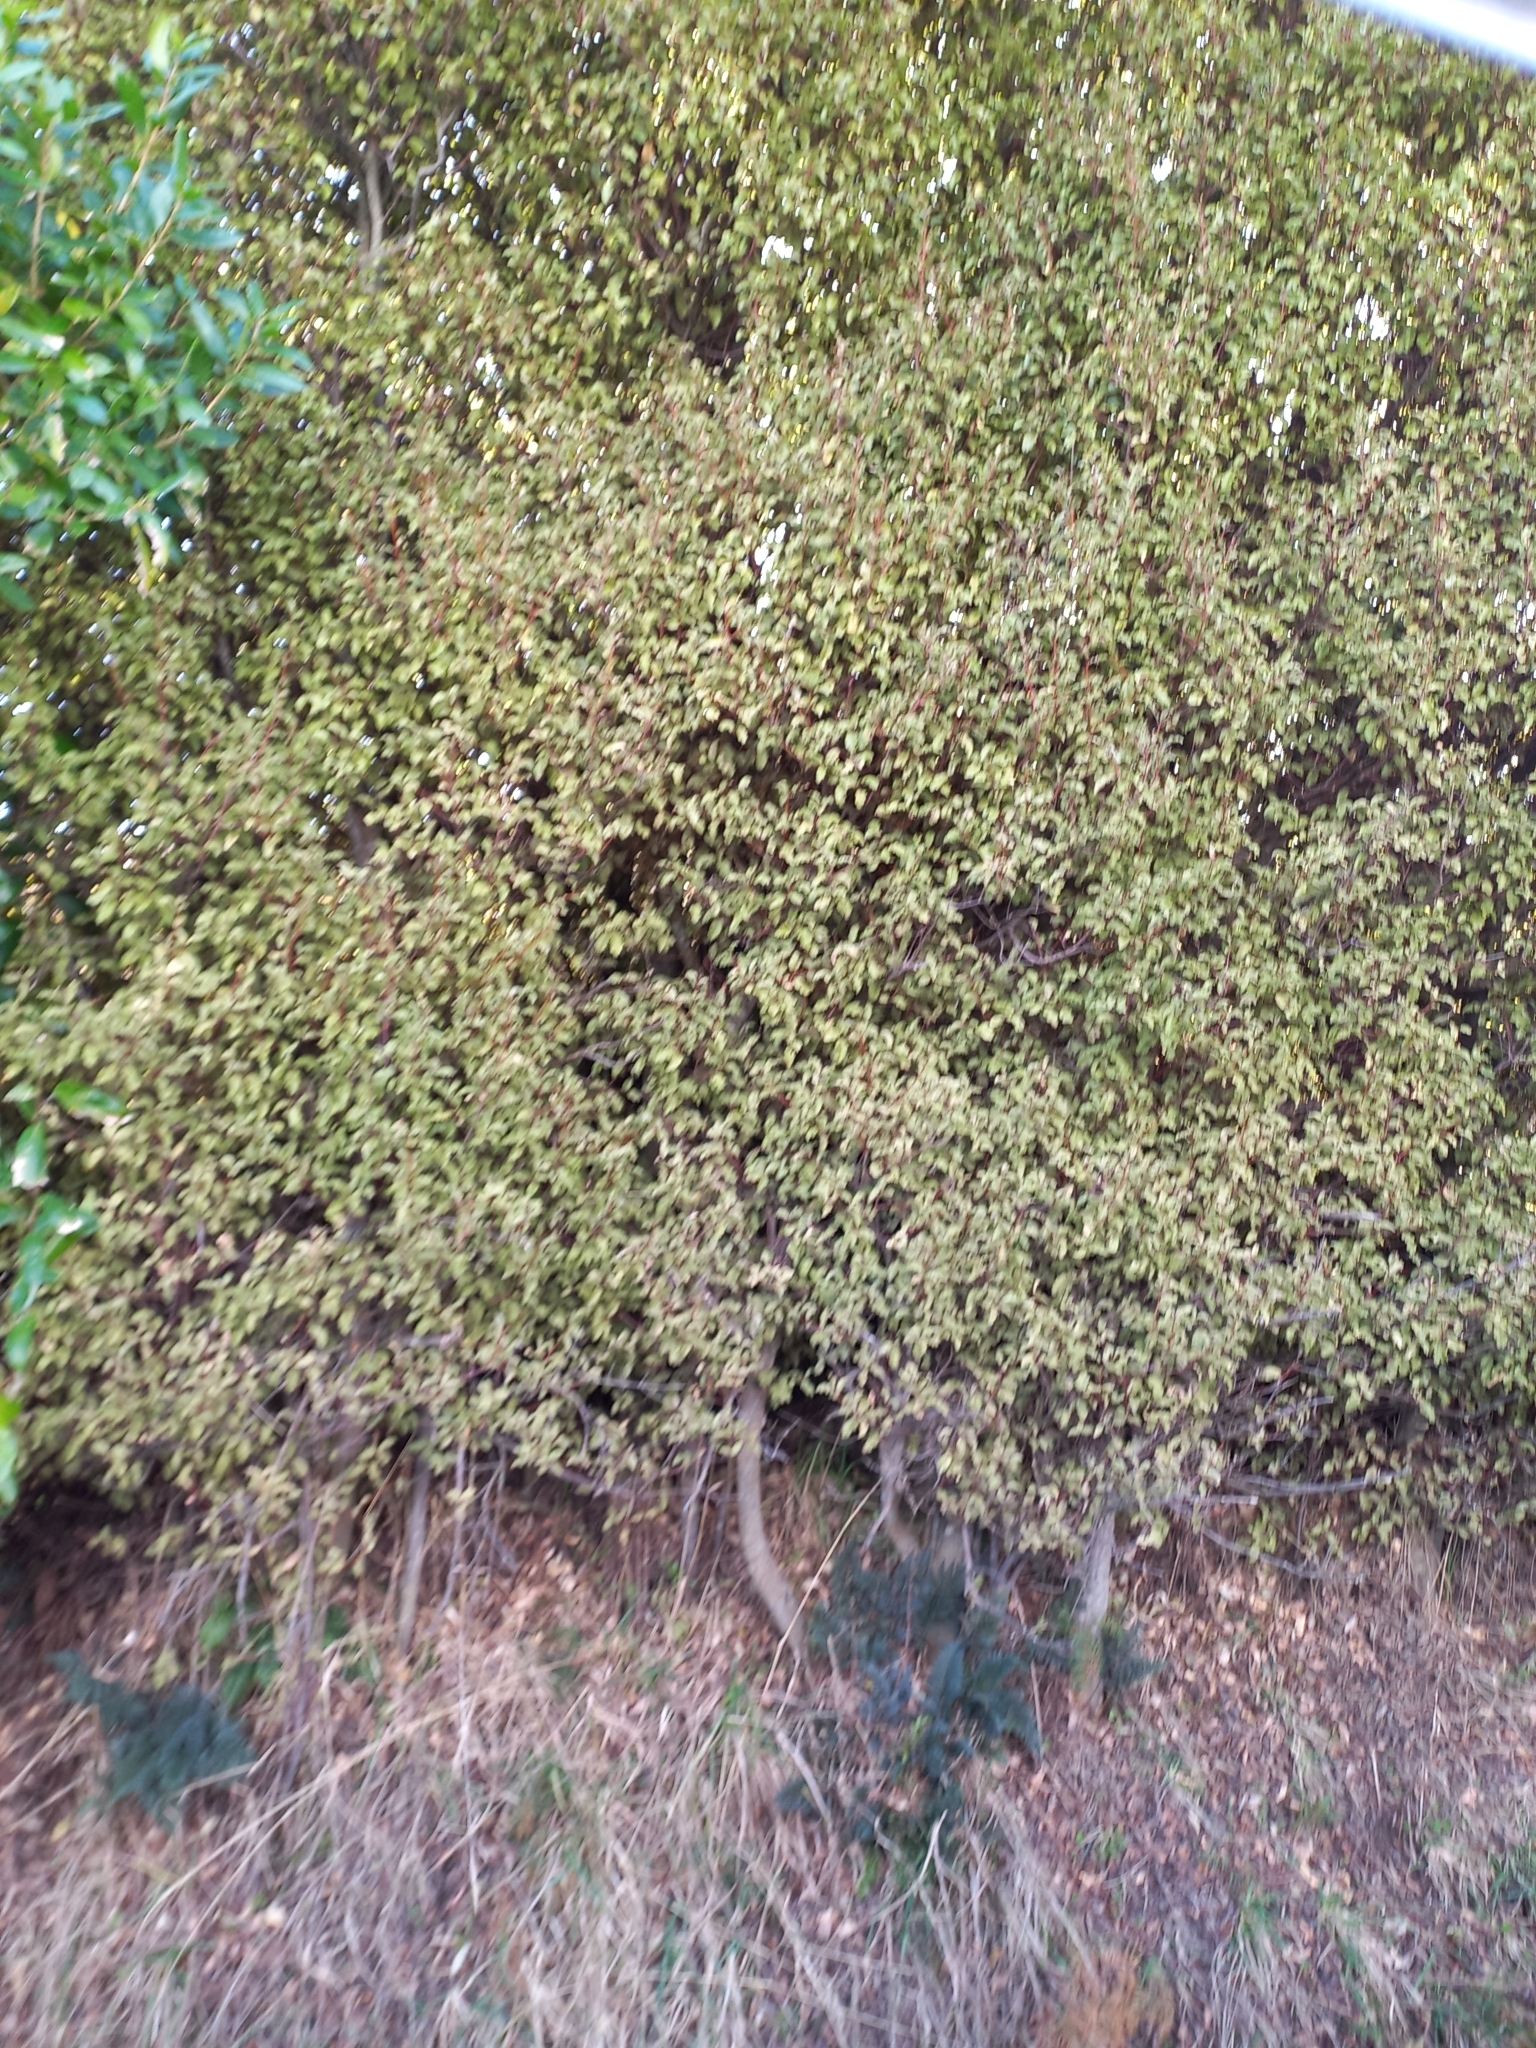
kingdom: Plantae
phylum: Tracheophyta
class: Magnoliopsida
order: Ericales
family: Primulaceae
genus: Myrsine
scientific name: Myrsine australis
